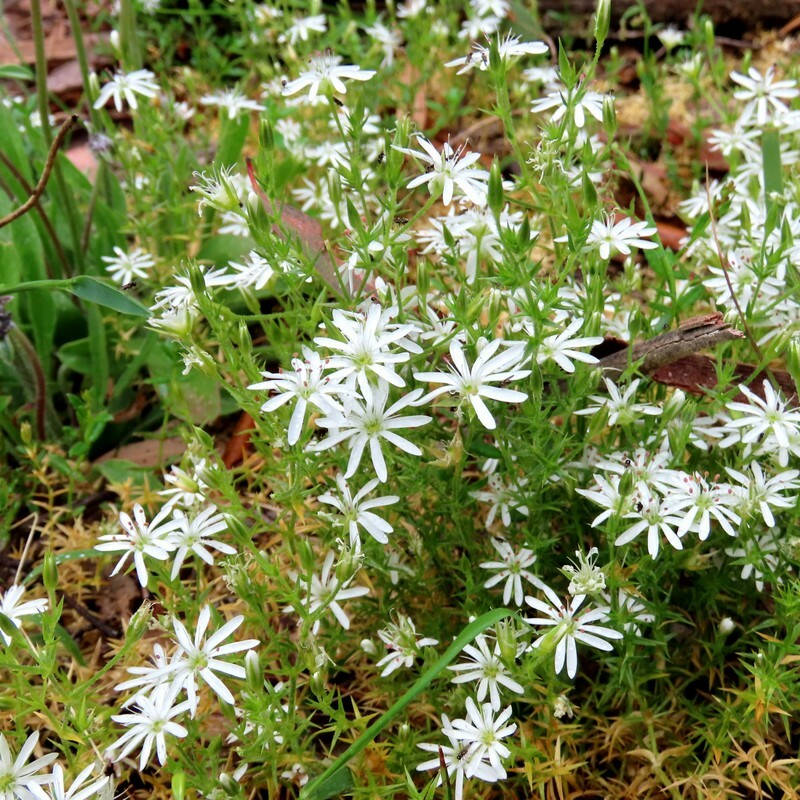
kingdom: Plantae
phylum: Tracheophyta
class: Magnoliopsida
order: Caryophyllales
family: Caryophyllaceae
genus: Stellaria
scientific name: Stellaria pungens
